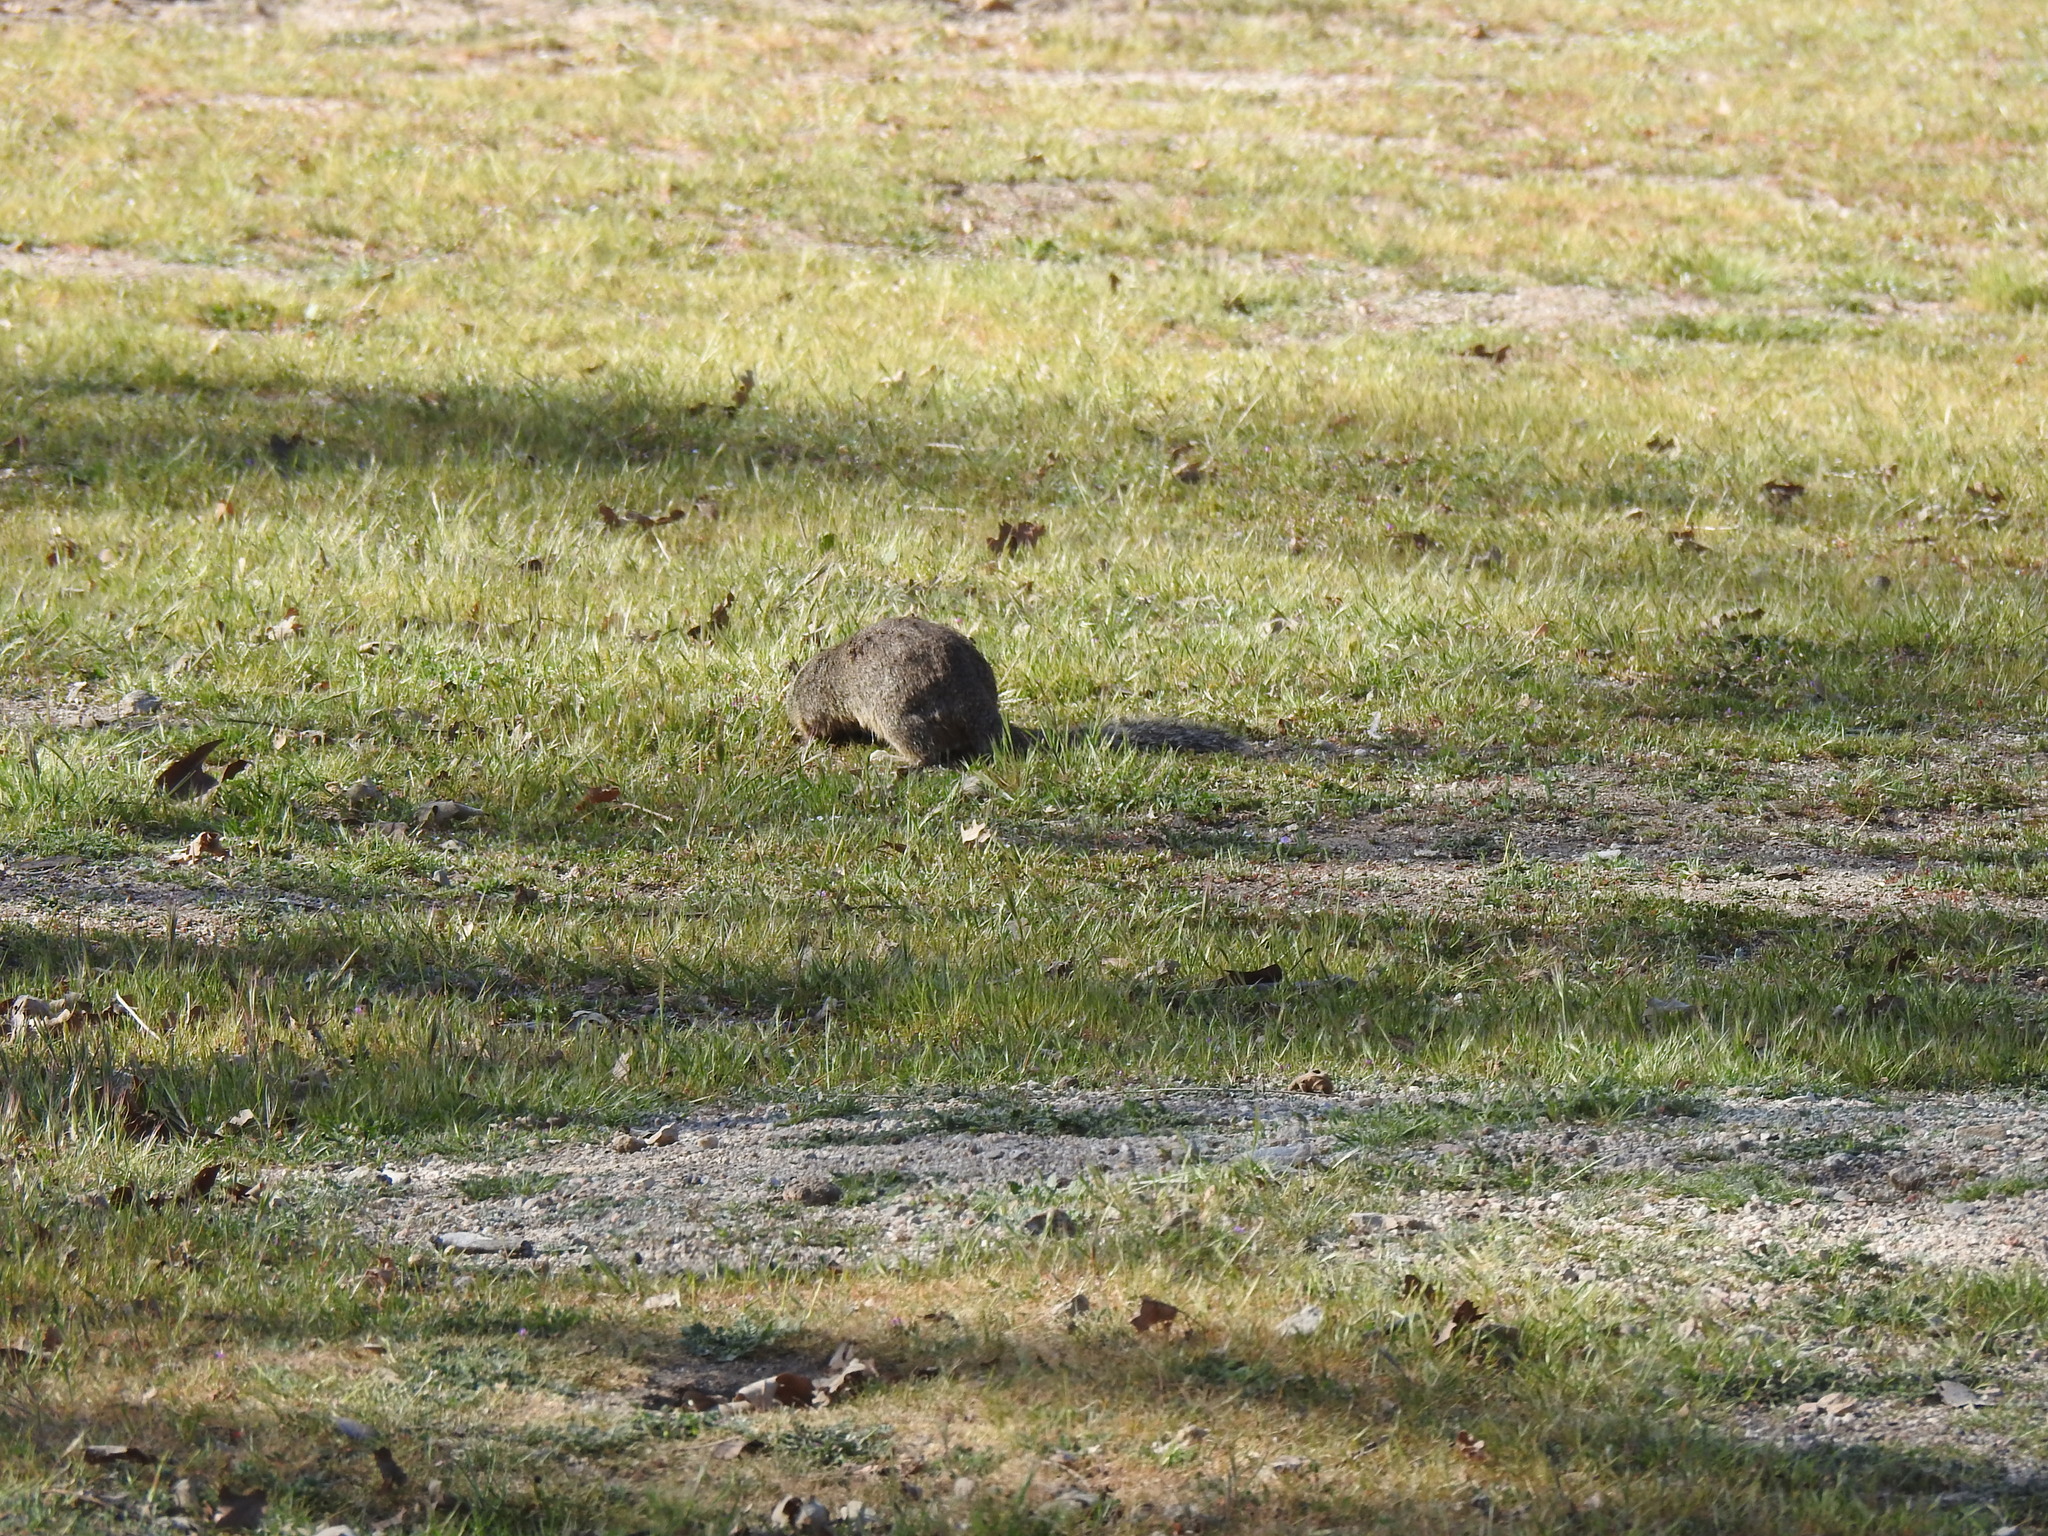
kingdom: Animalia
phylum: Chordata
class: Mammalia
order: Rodentia
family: Sciuridae
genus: Otospermophilus
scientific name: Otospermophilus beecheyi
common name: California ground squirrel
